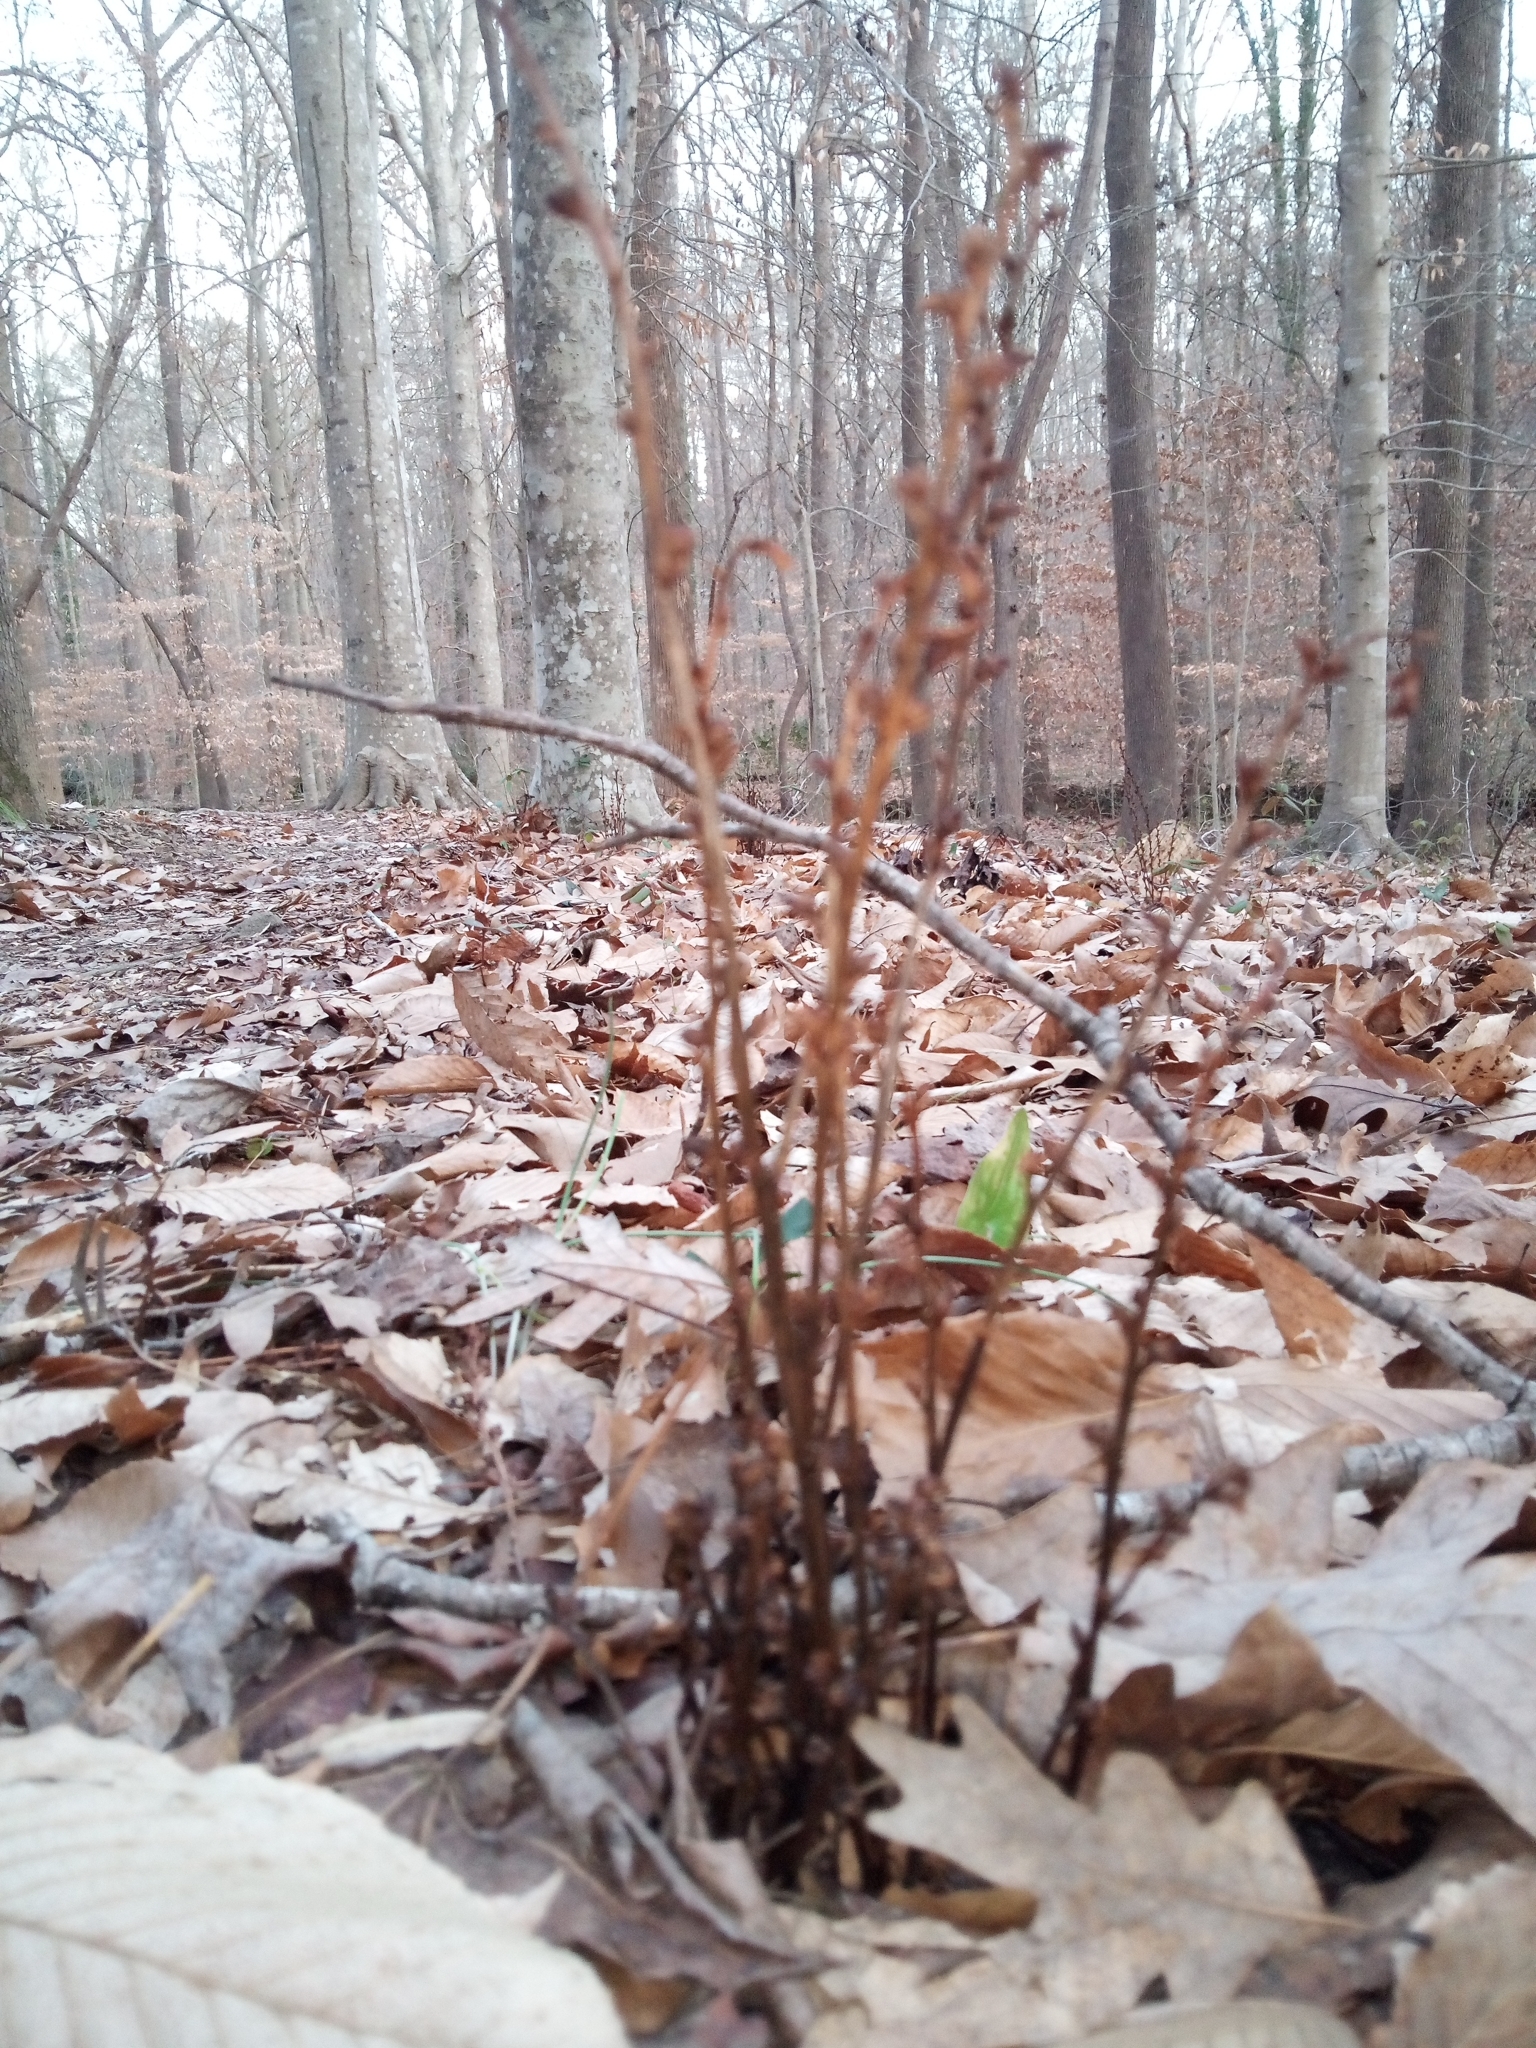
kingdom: Plantae
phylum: Tracheophyta
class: Magnoliopsida
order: Lamiales
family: Orobanchaceae
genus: Epifagus
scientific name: Epifagus virginiana
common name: Beechdrops
